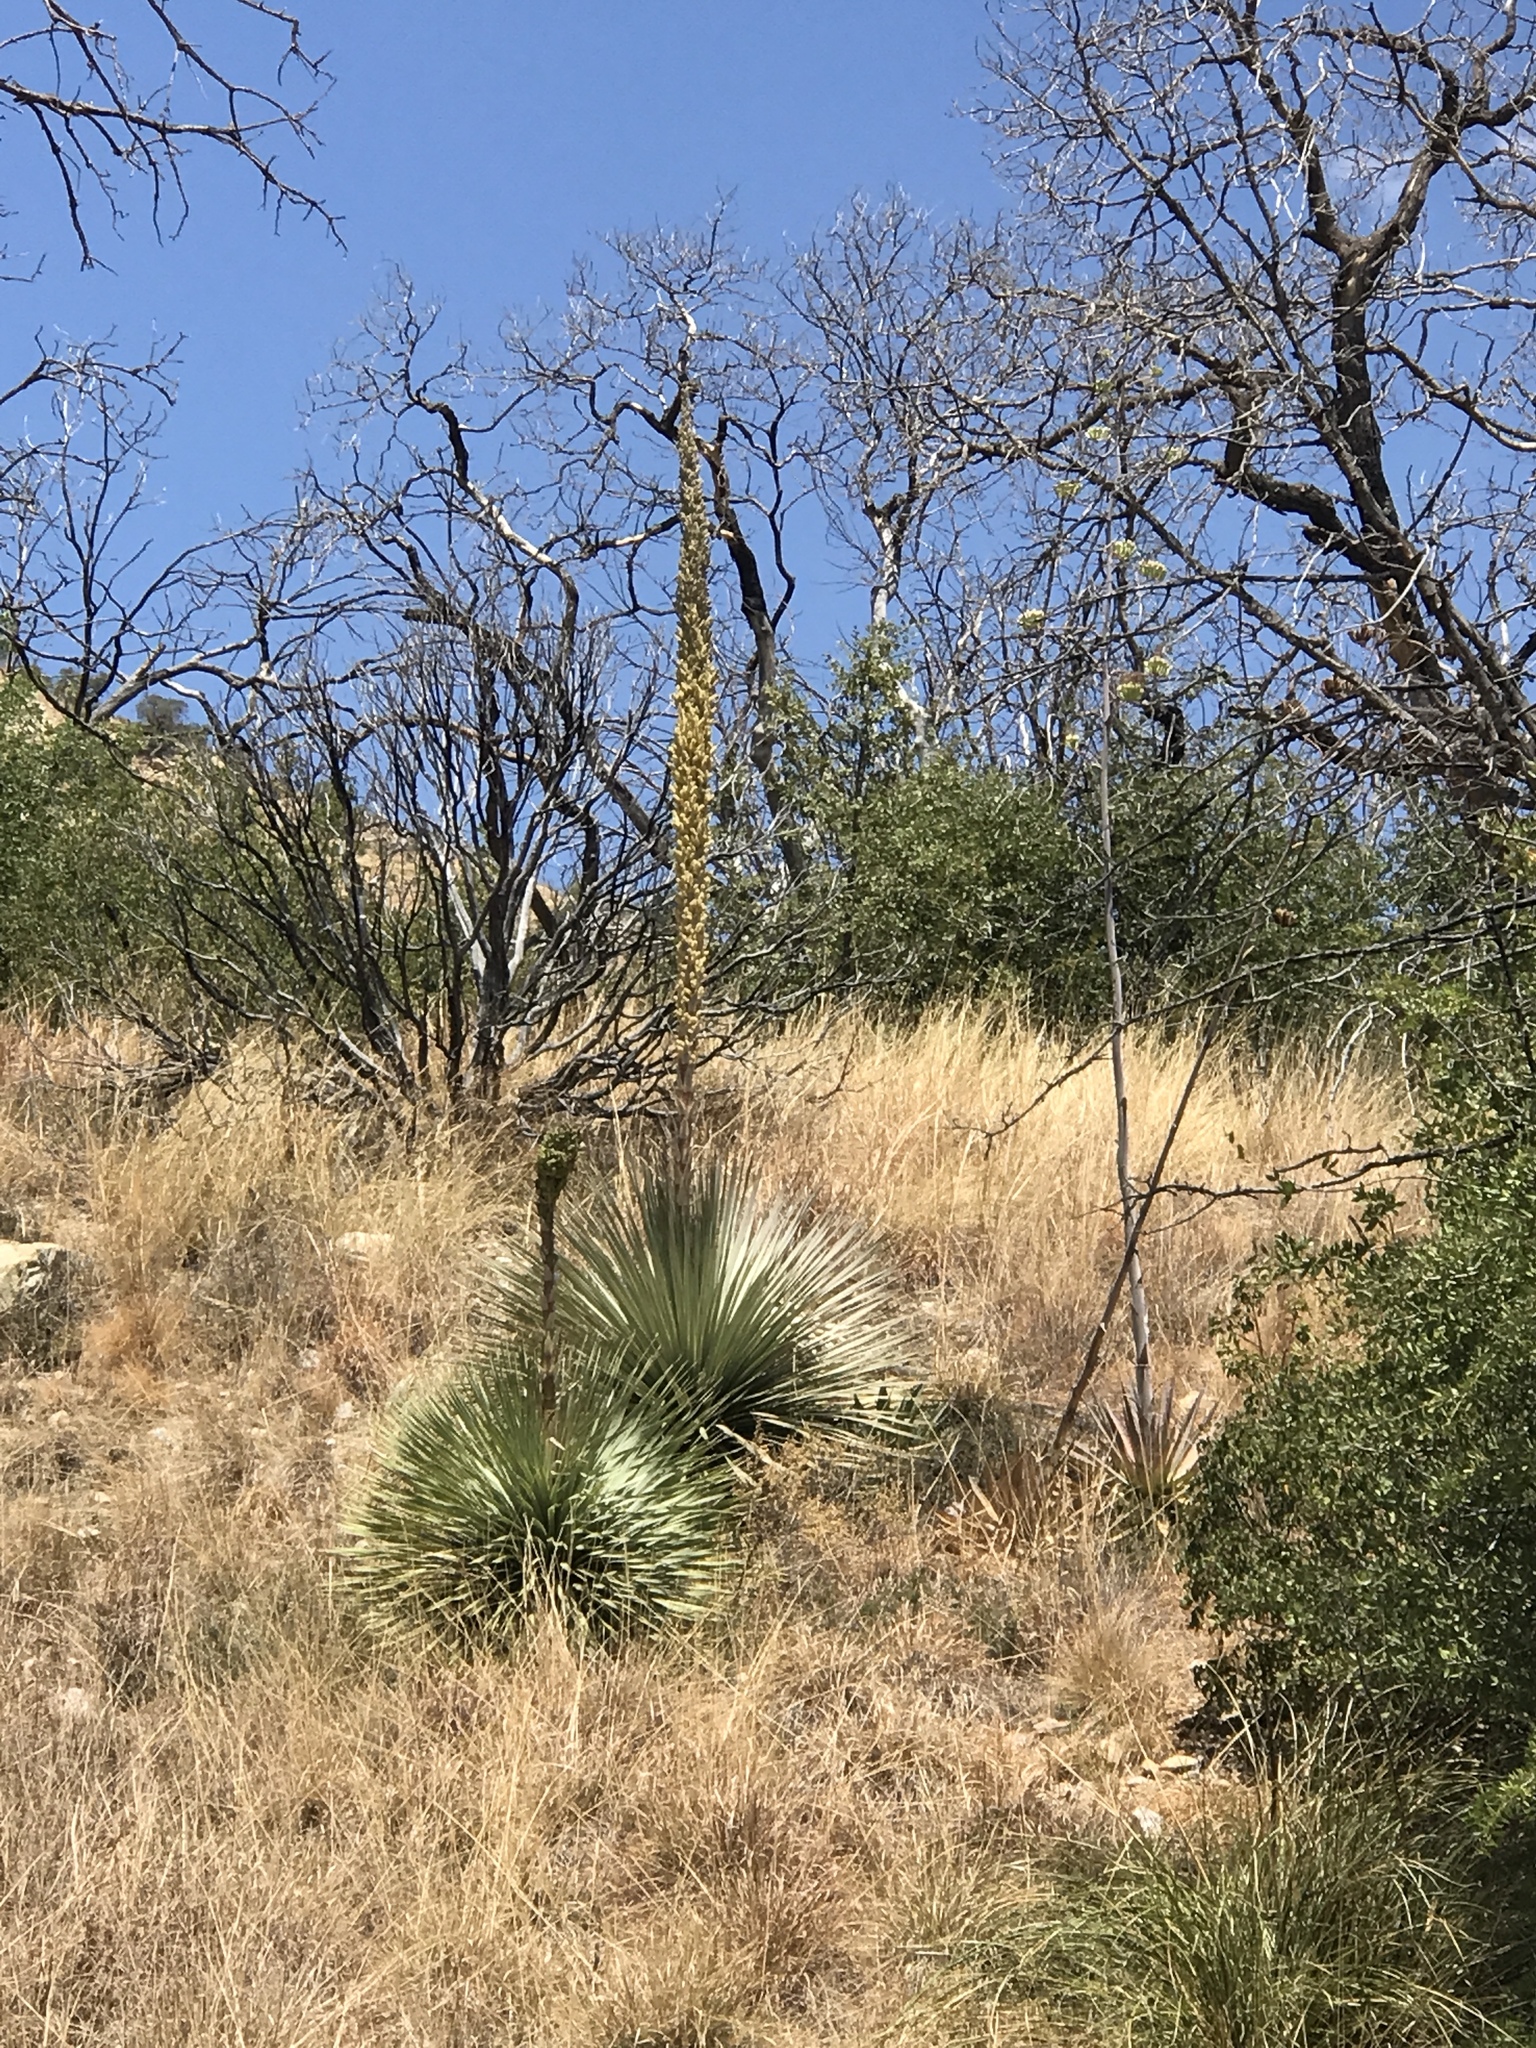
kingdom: Plantae
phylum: Tracheophyta
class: Liliopsida
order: Asparagales
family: Asparagaceae
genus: Dasylirion
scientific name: Dasylirion wheeleri
